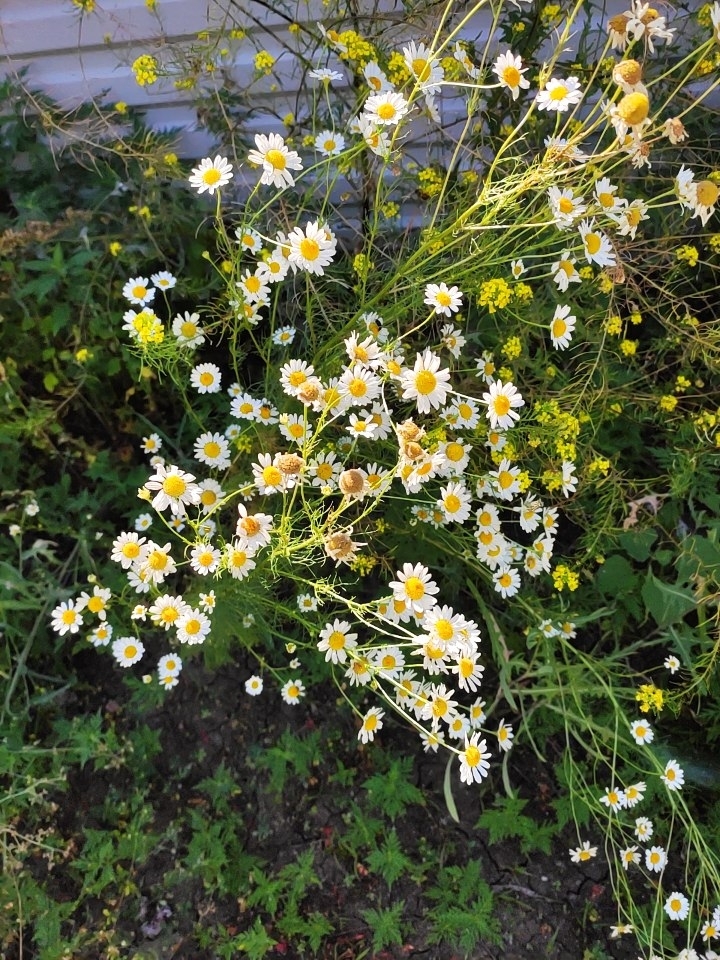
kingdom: Plantae
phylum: Tracheophyta
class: Magnoliopsida
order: Asterales
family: Asteraceae
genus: Tripleurospermum
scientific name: Tripleurospermum inodorum
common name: Scentless mayweed
